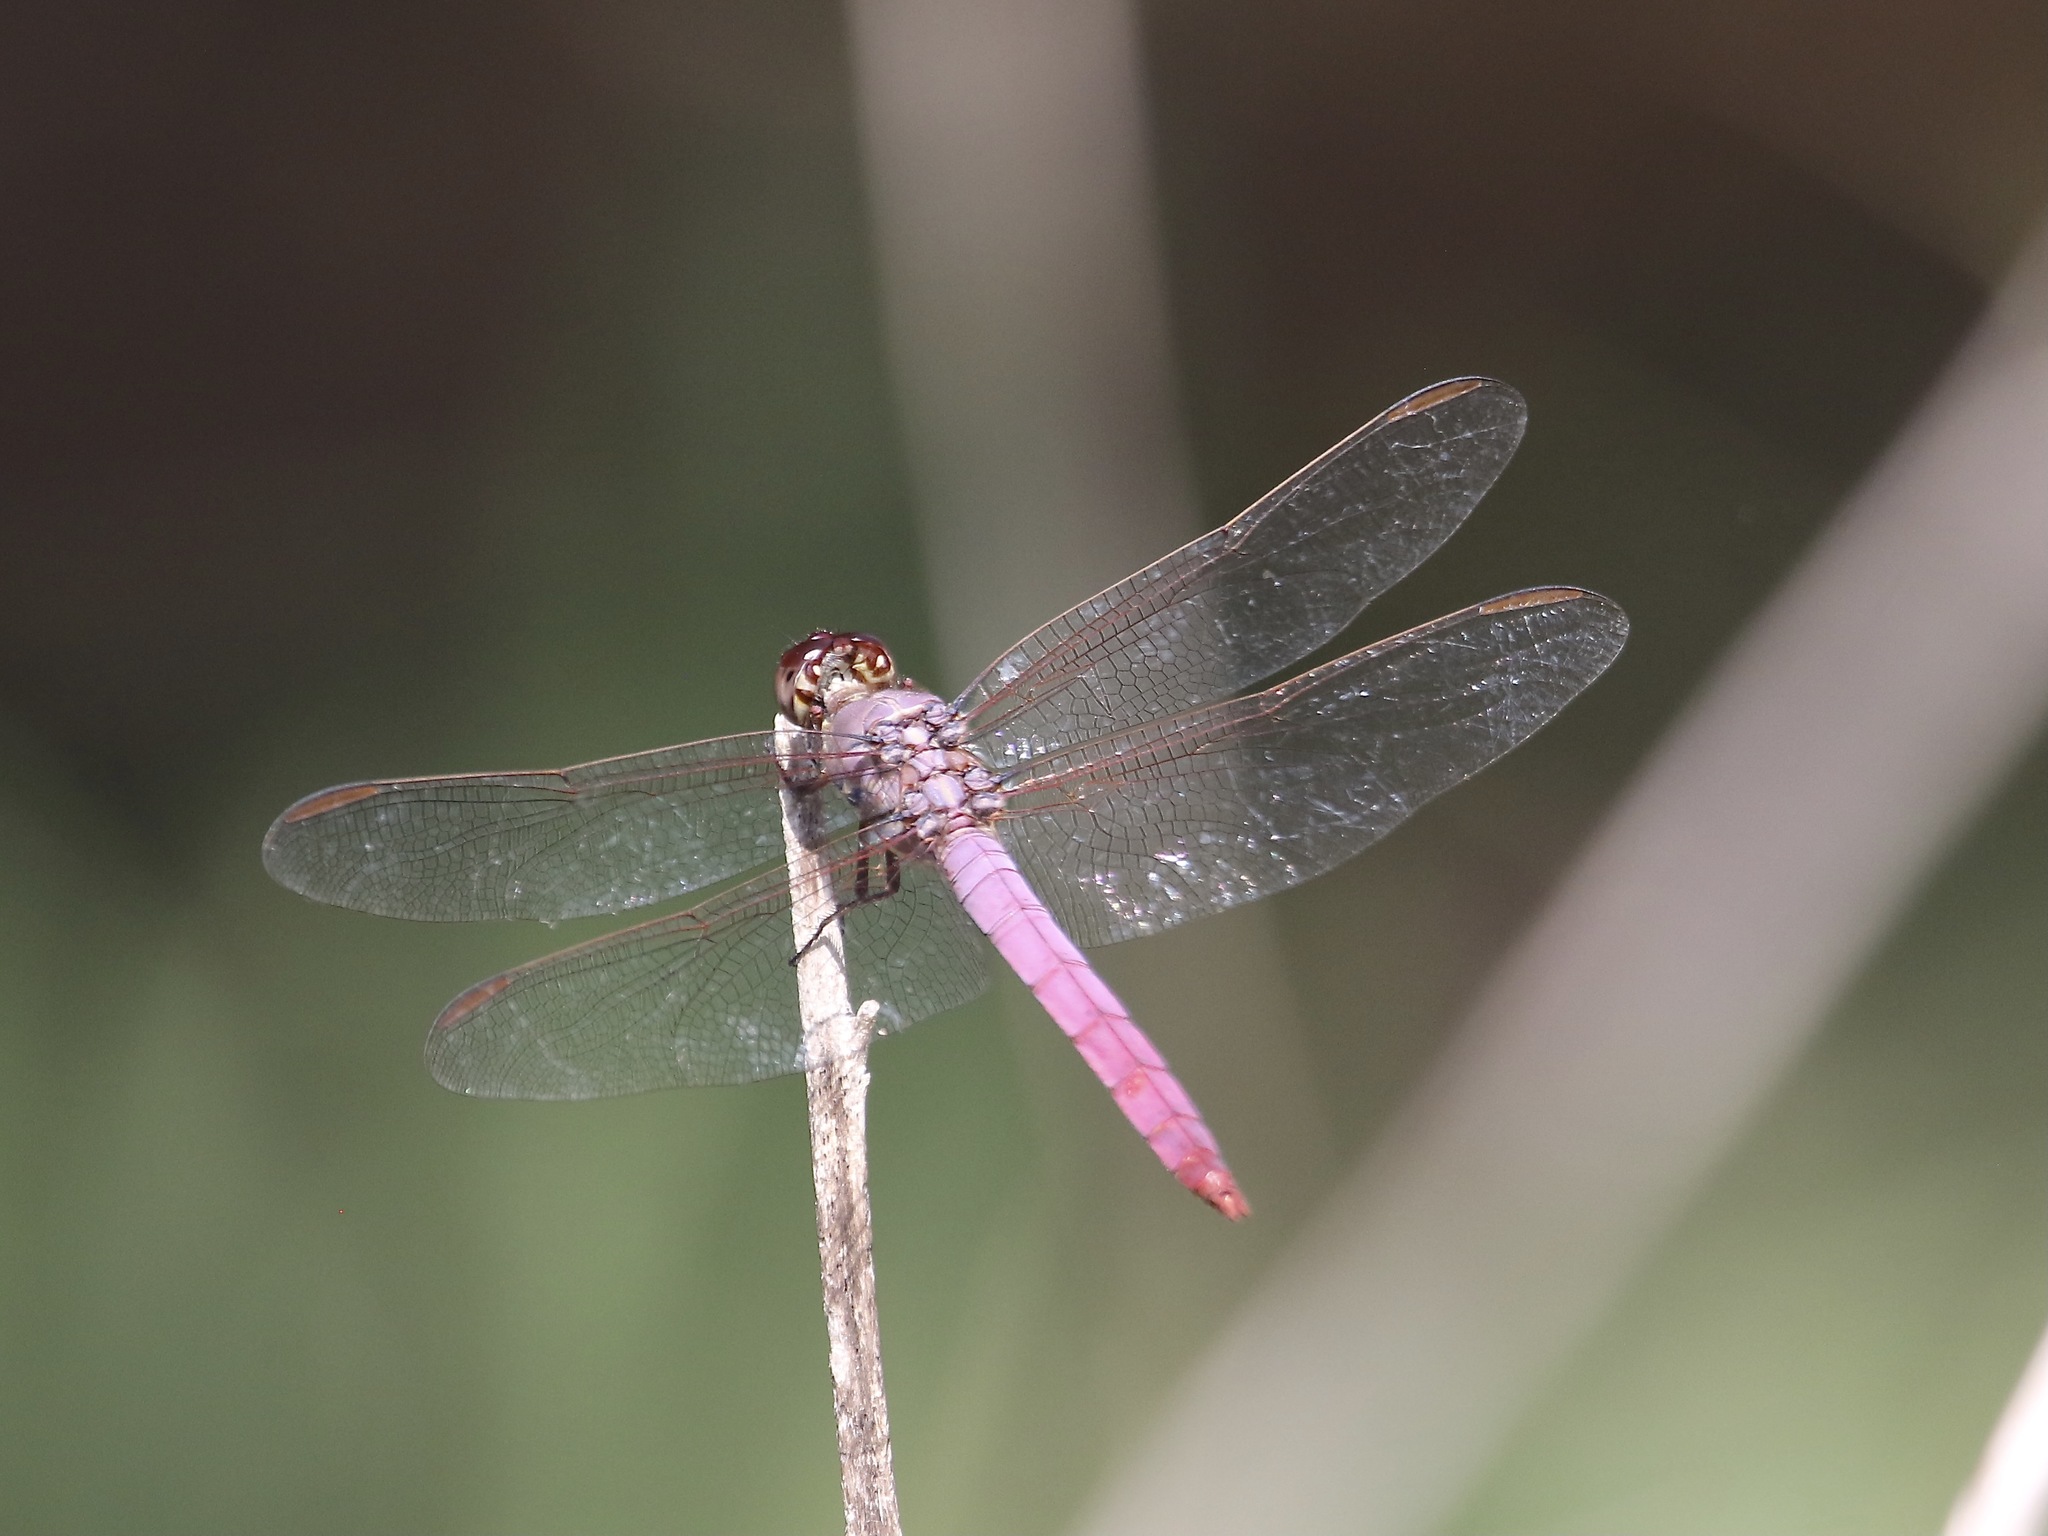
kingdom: Animalia
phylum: Arthropoda
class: Insecta
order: Odonata
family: Libellulidae
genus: Orthemis
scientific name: Orthemis ferruginea
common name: Roseate skimmer
